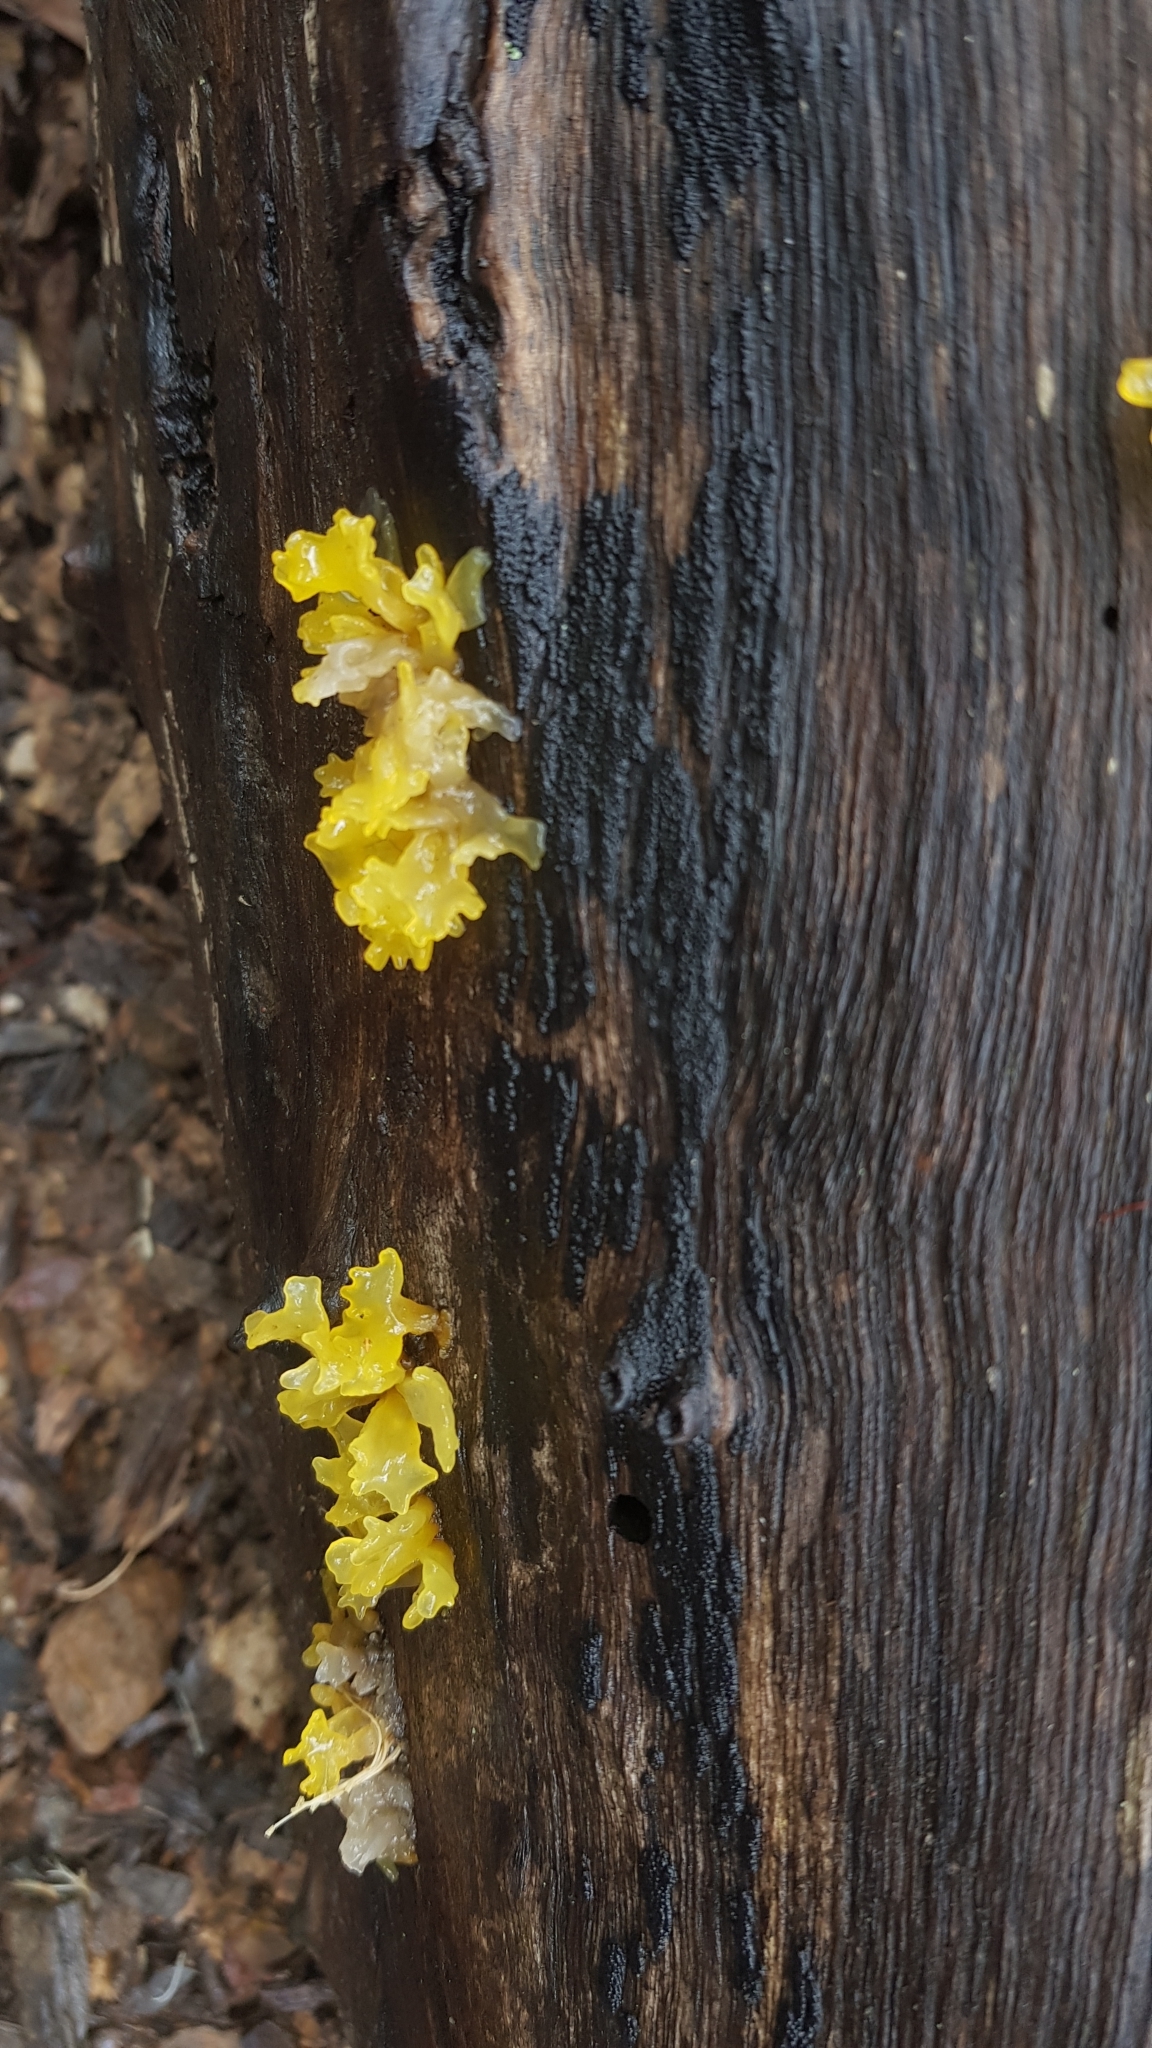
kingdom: Fungi
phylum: Basidiomycota
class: Tremellomycetes
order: Tremellales
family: Tremellaceae
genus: Tremella
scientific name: Tremella fuciformis
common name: Snow fungus
